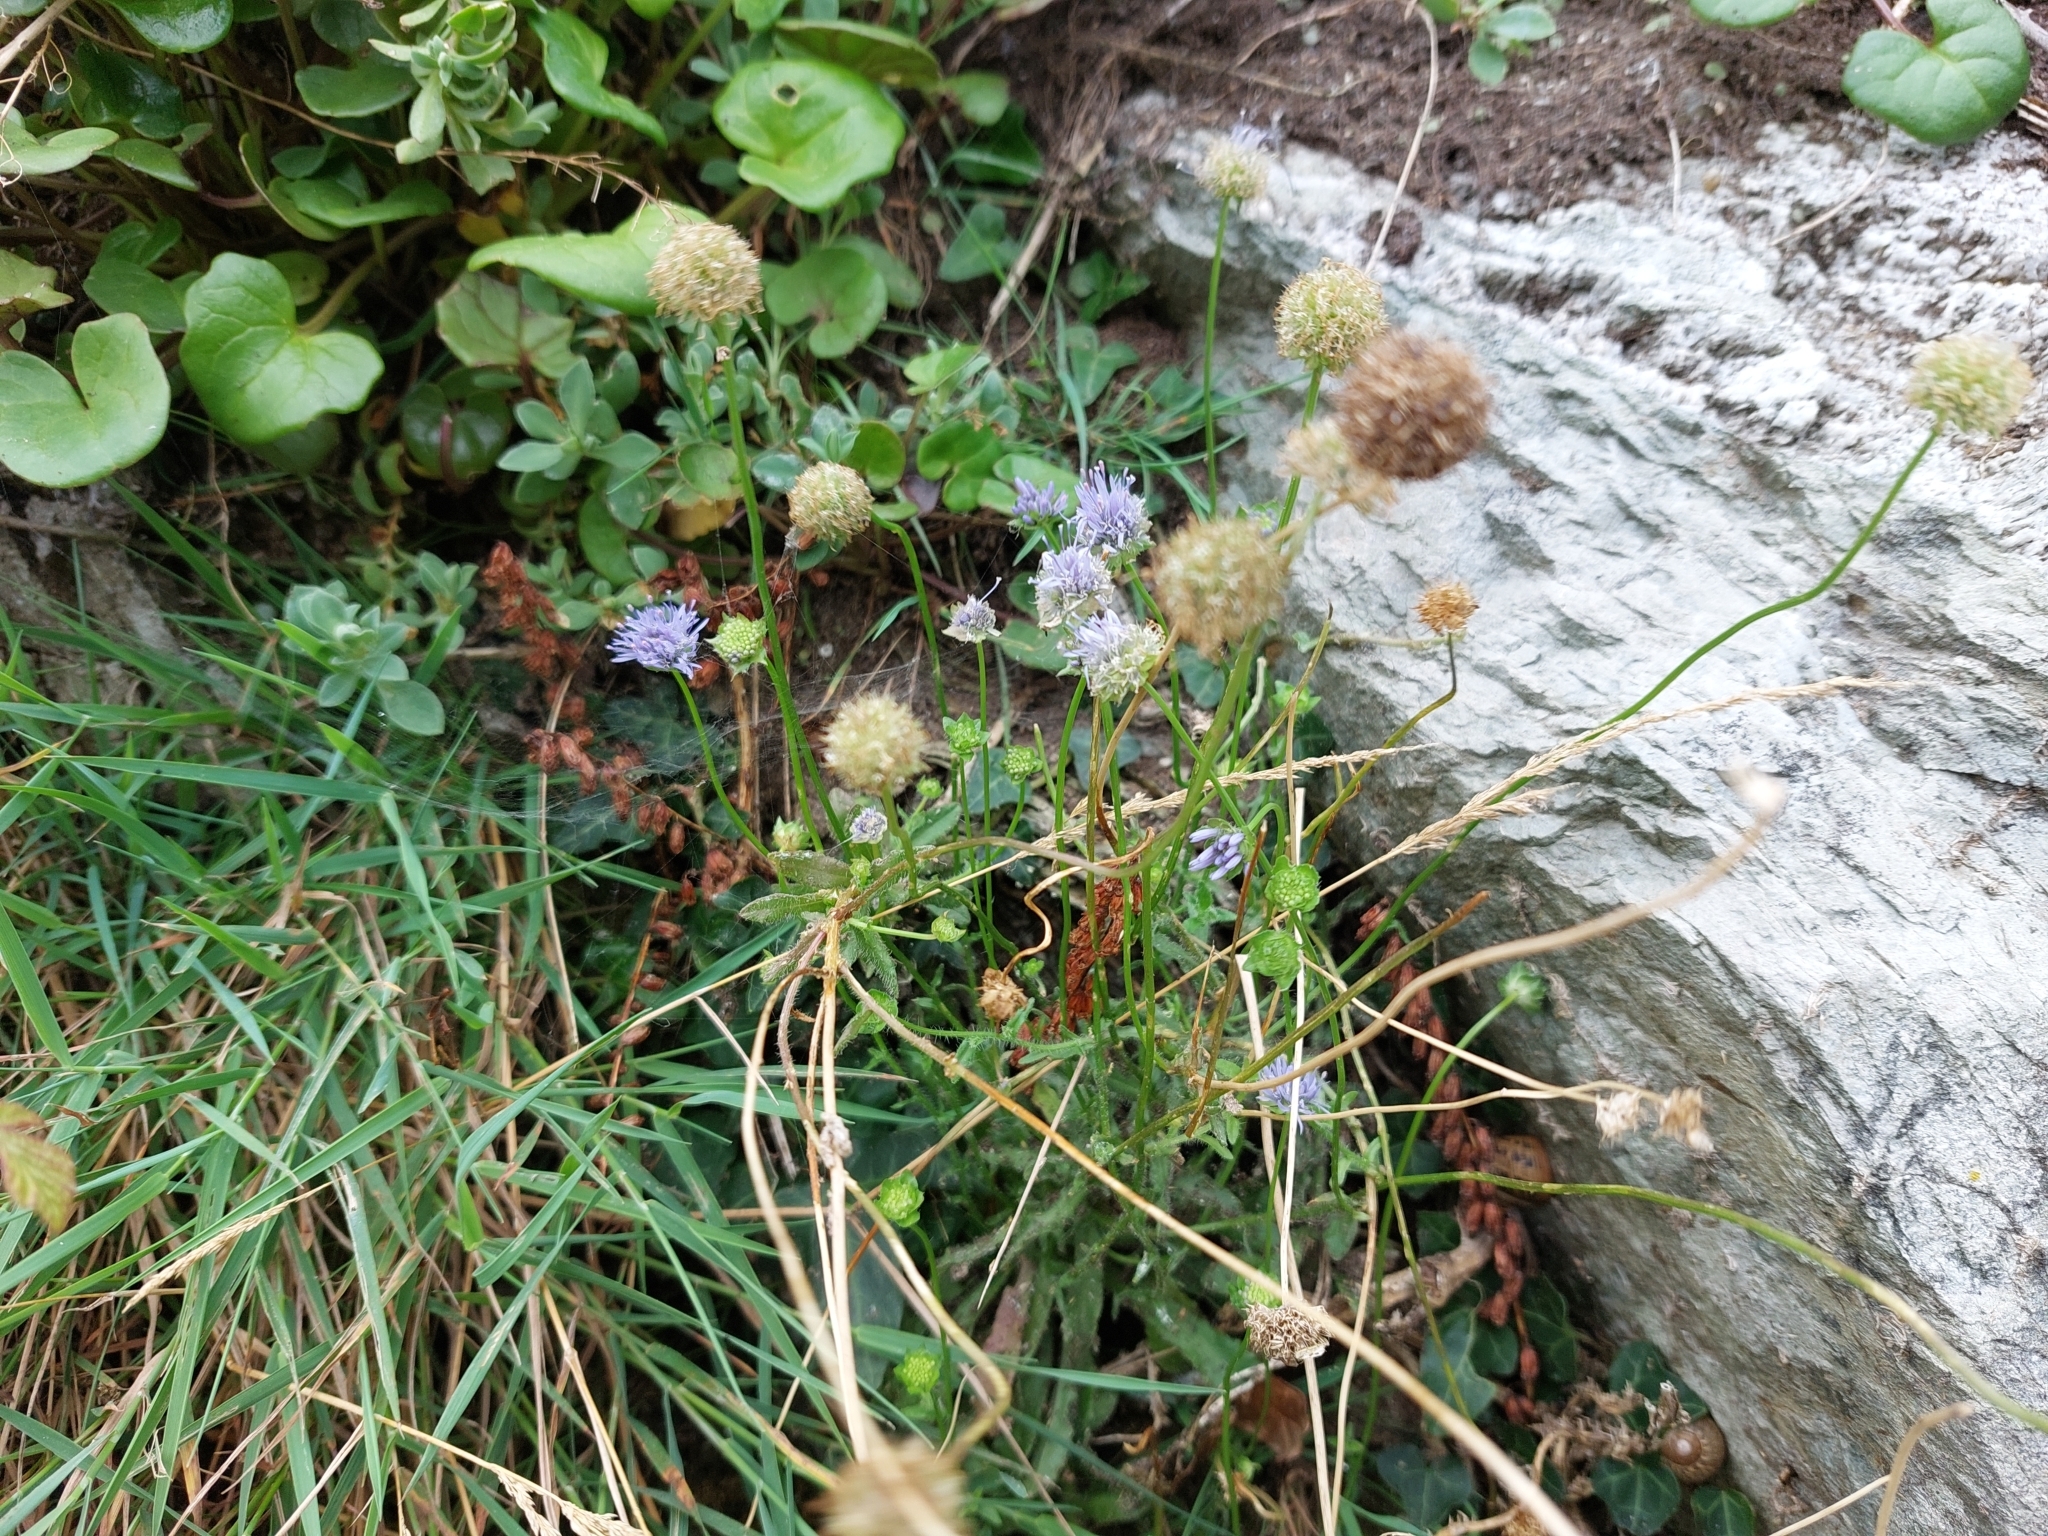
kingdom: Plantae
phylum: Tracheophyta
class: Magnoliopsida
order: Asterales
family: Campanulaceae
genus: Jasione
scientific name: Jasione montana
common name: Sheep's-bit
